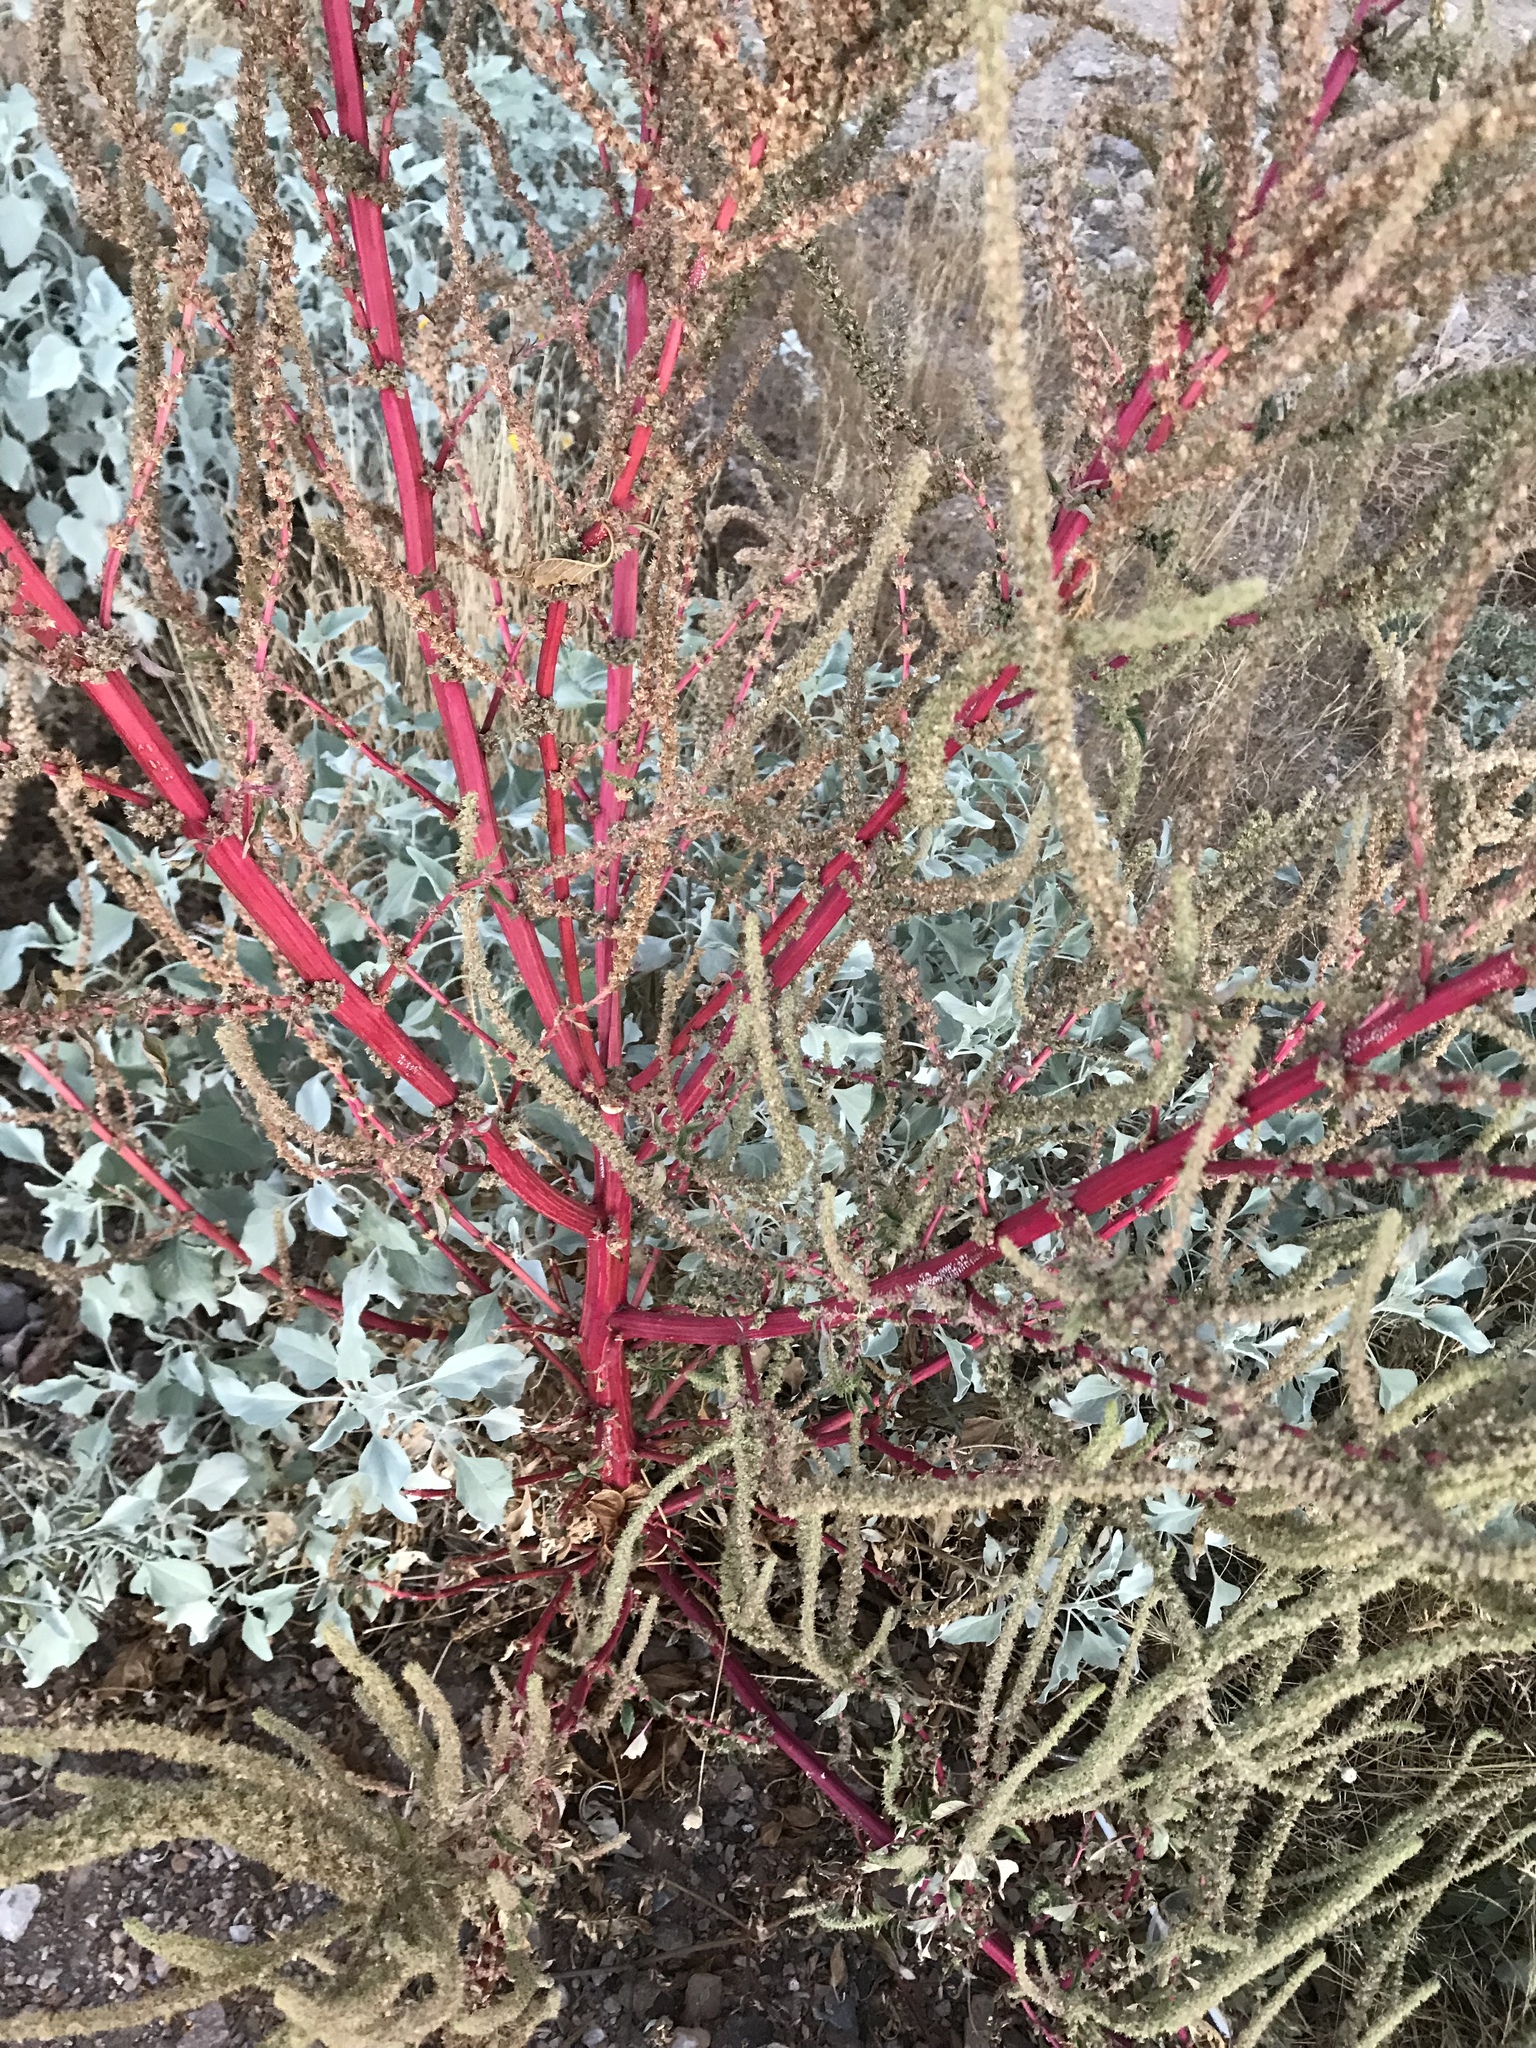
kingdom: Plantae
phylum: Tracheophyta
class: Magnoliopsida
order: Caryophyllales
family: Amaranthaceae
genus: Amaranthus
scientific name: Amaranthus palmeri
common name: Dioecious amaranth
